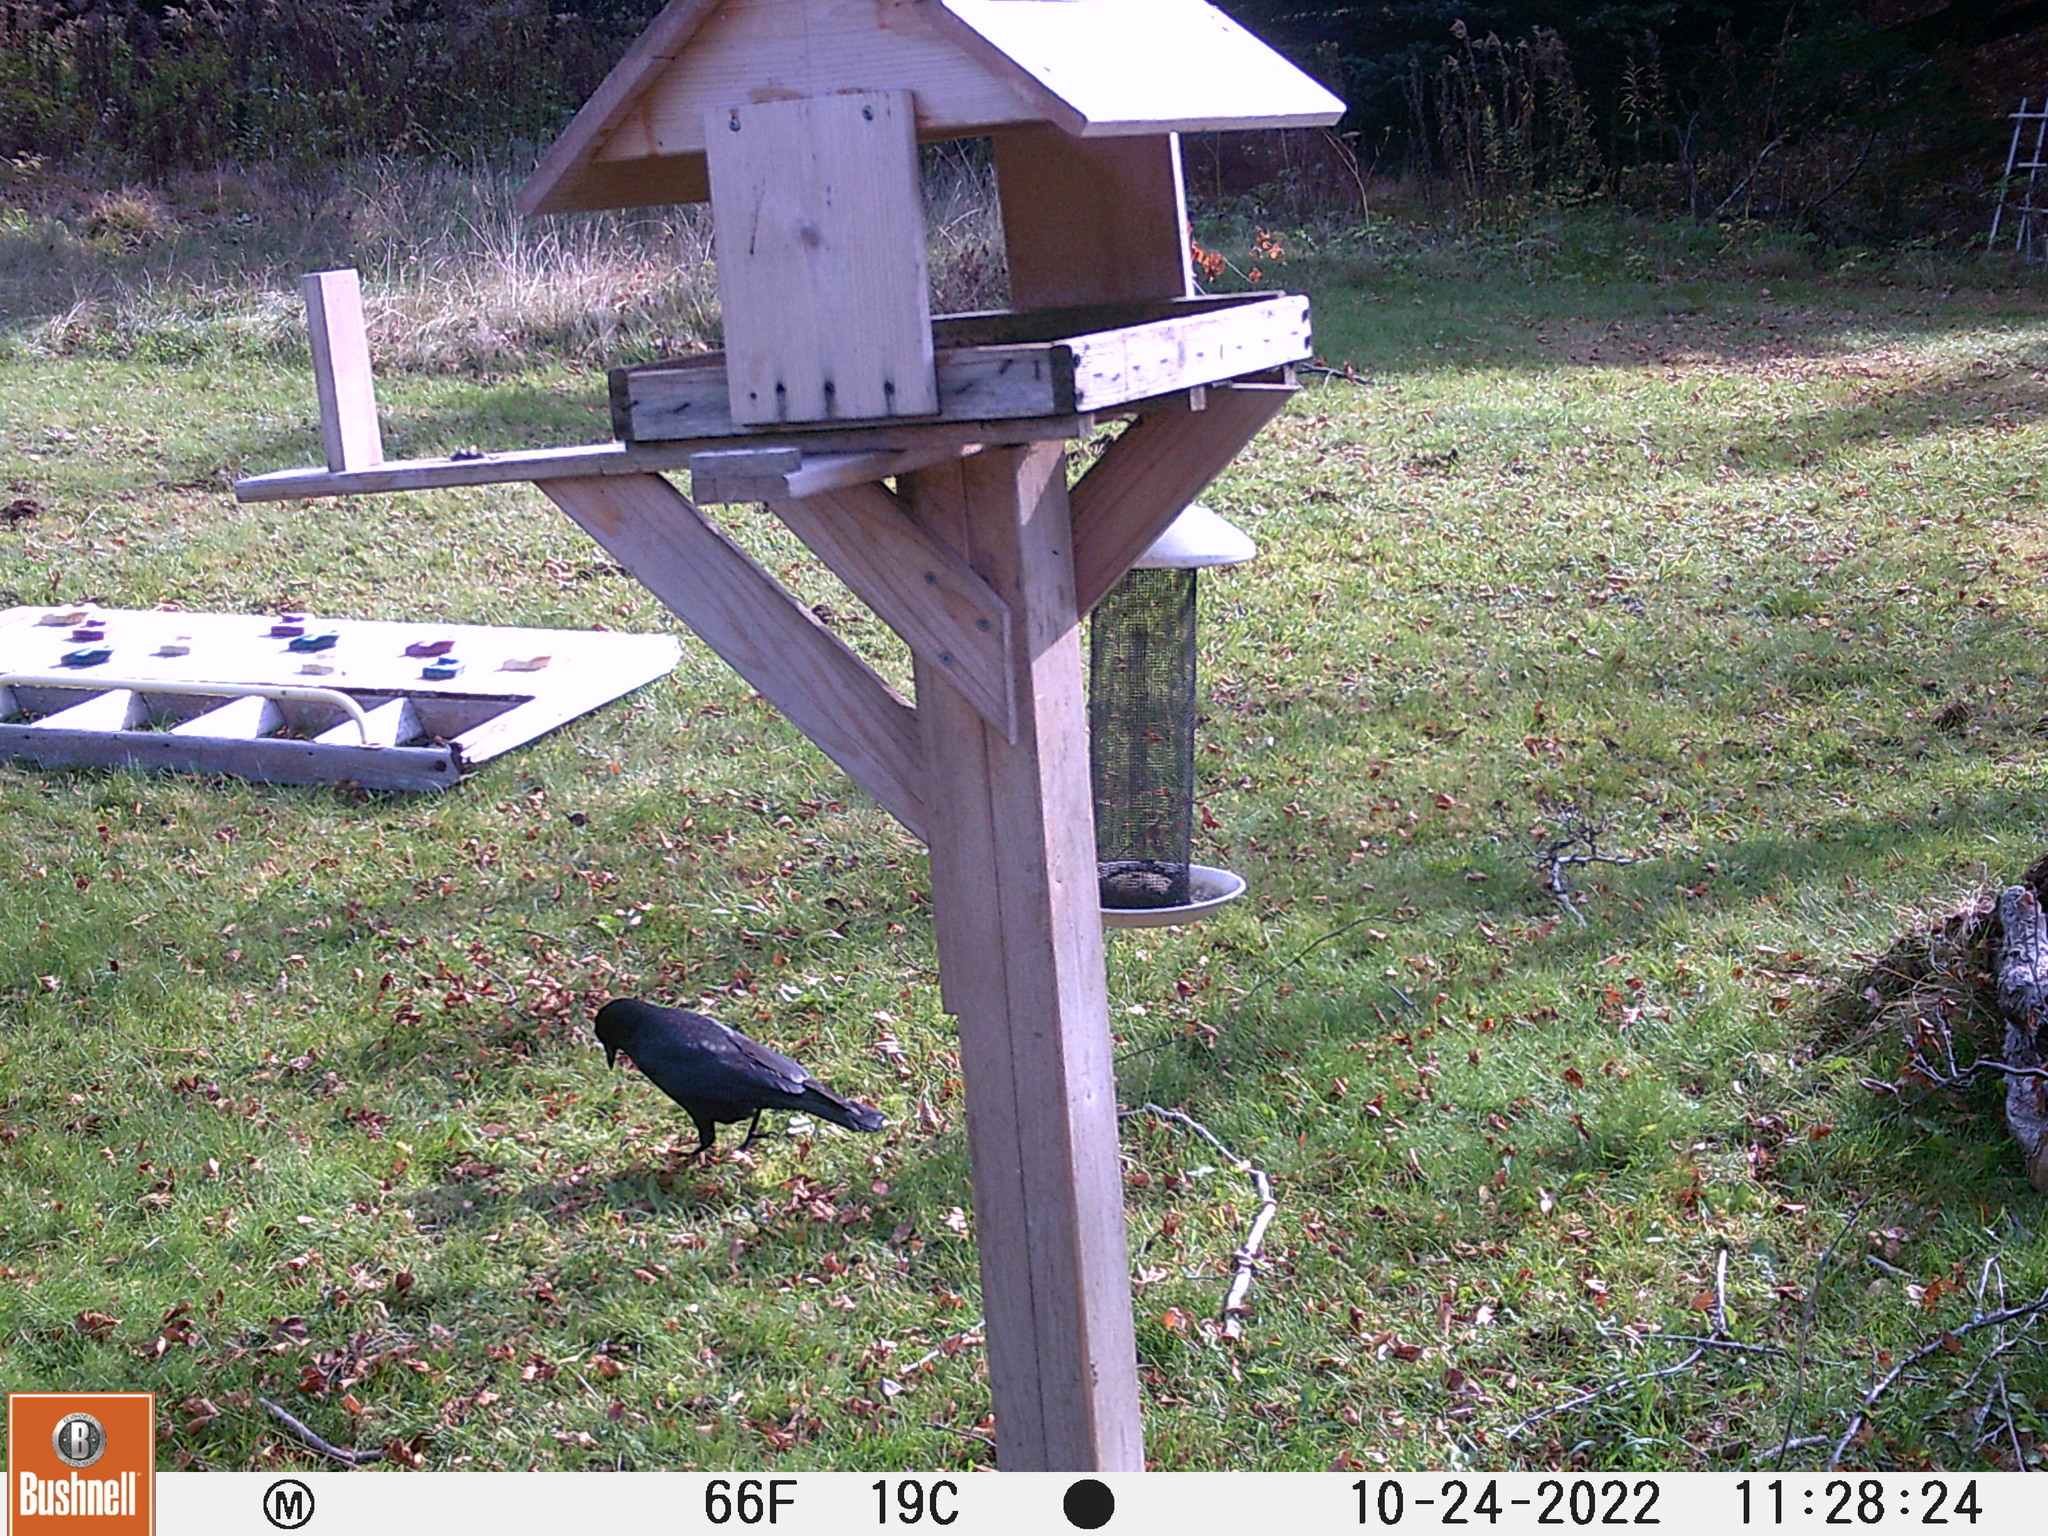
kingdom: Animalia
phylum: Chordata
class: Aves
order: Passeriformes
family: Corvidae
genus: Corvus
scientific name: Corvus brachyrhynchos
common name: American crow
